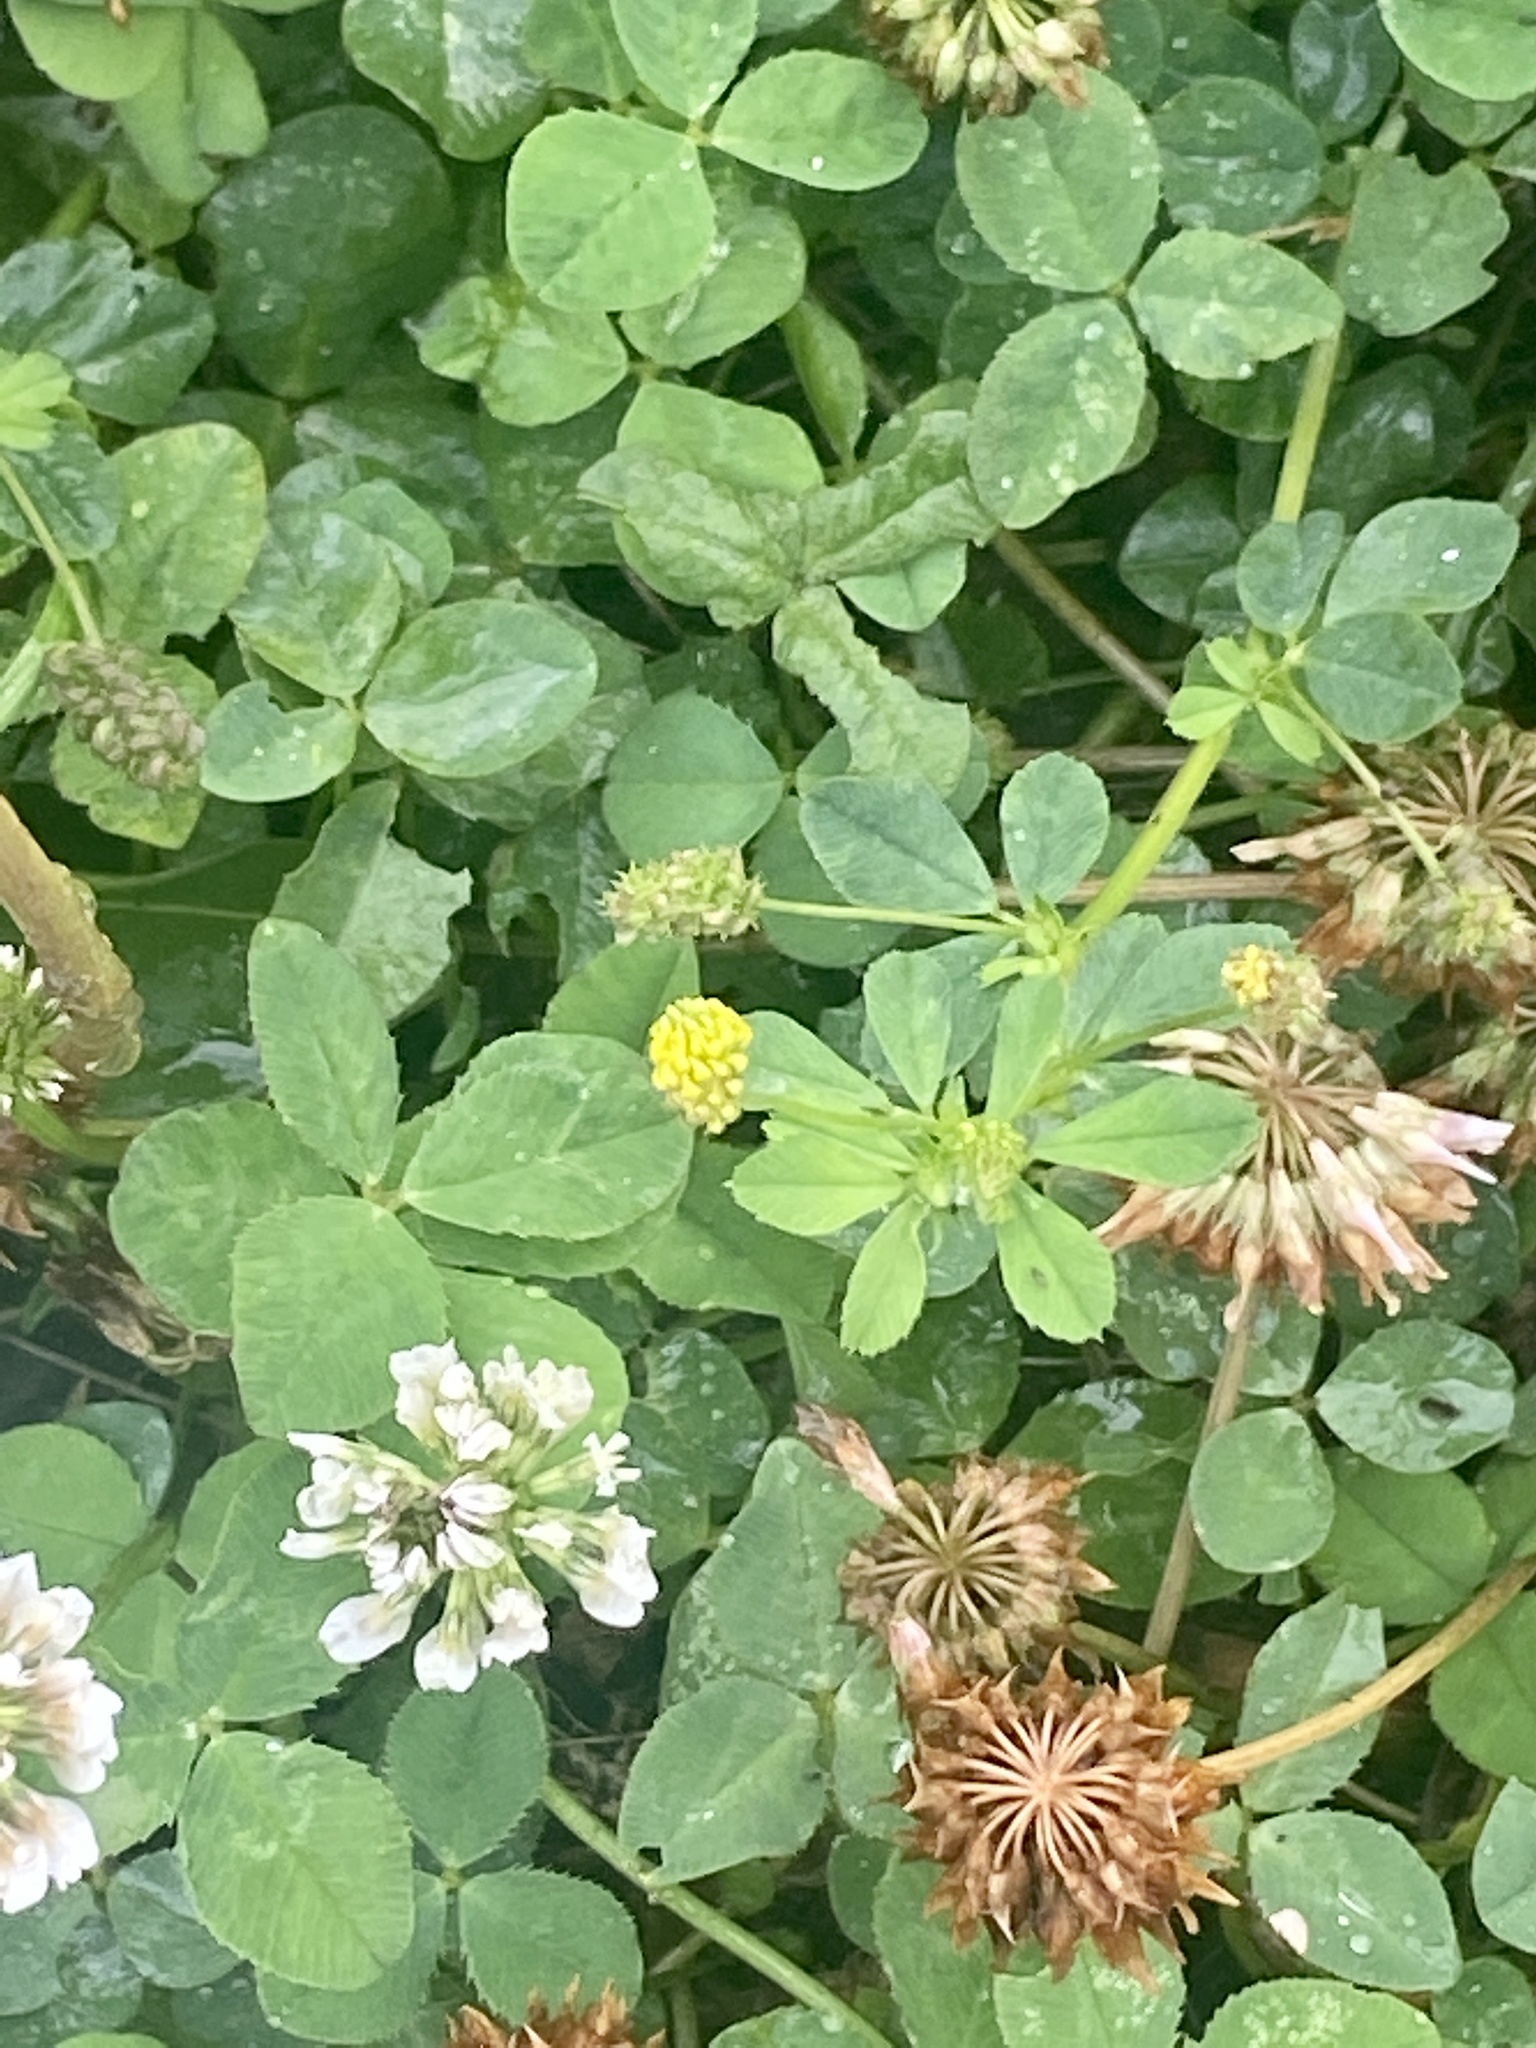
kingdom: Plantae
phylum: Tracheophyta
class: Magnoliopsida
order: Fabales
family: Fabaceae
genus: Medicago
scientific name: Medicago lupulina
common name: Black medick
